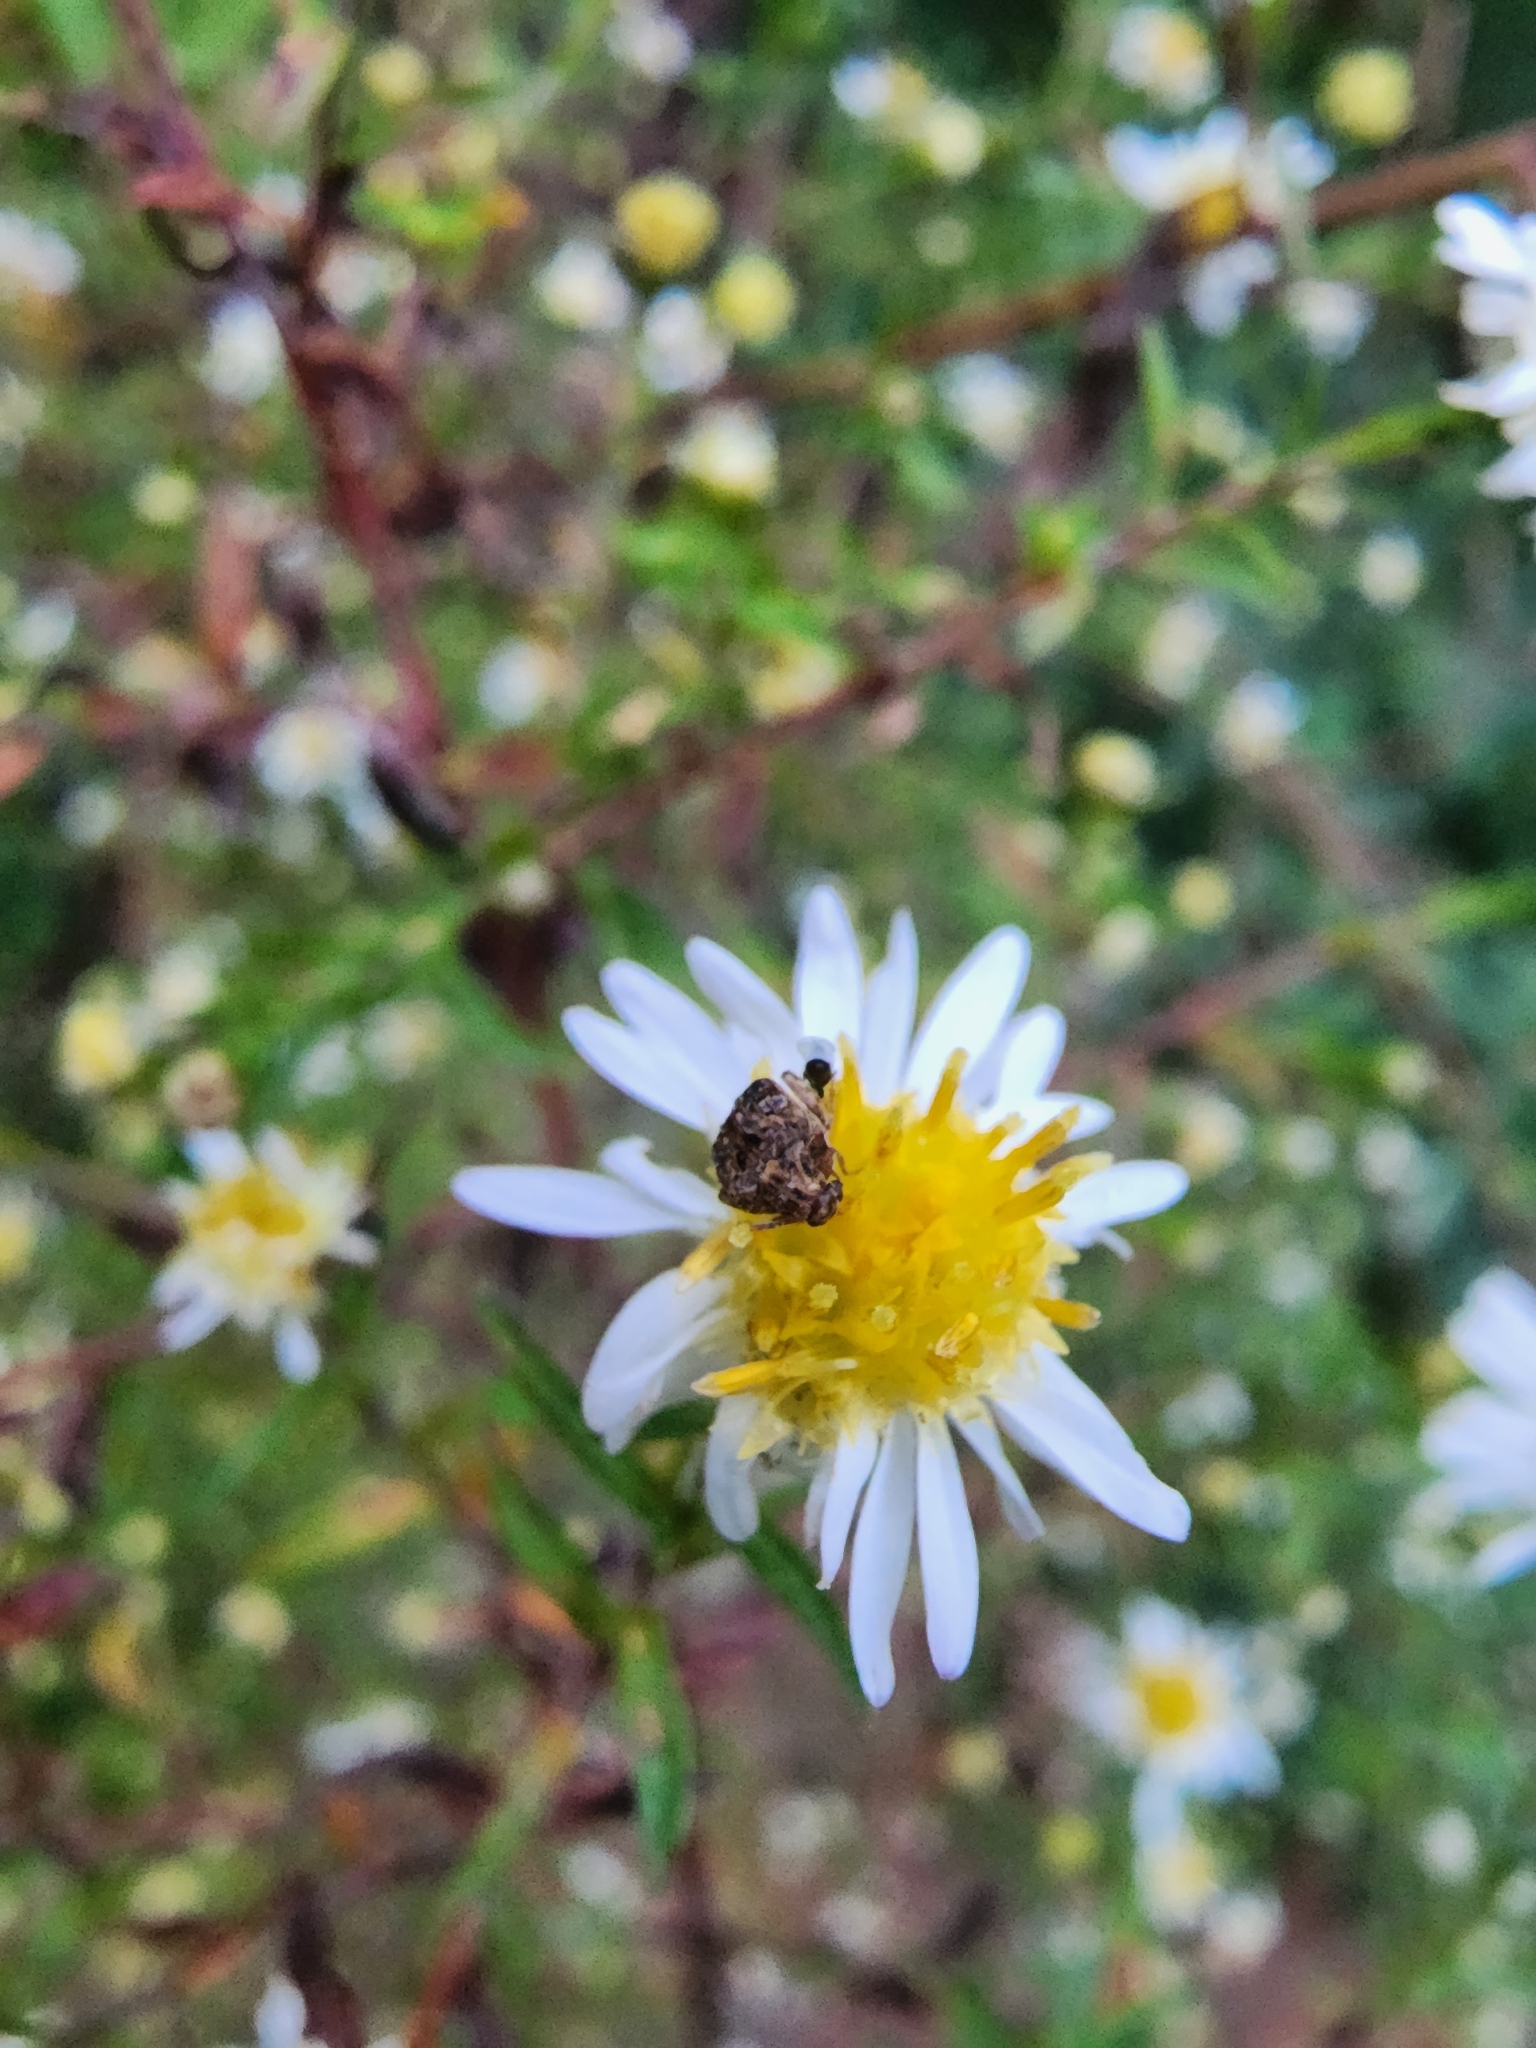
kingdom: Animalia
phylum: Arthropoda
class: Insecta
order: Coleoptera
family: Chrysomelidae
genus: Gibbobruchus
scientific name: Gibbobruchus mimus
